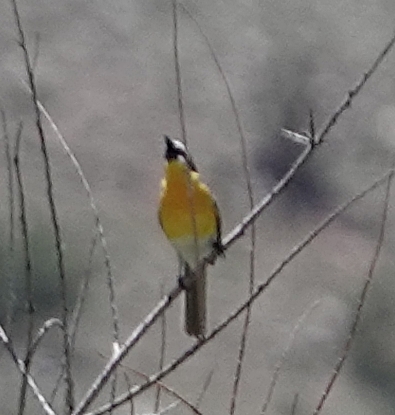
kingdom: Animalia
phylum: Chordata
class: Aves
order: Passeriformes
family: Parulidae
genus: Icteria
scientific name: Icteria virens
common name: Yellow-breasted chat
